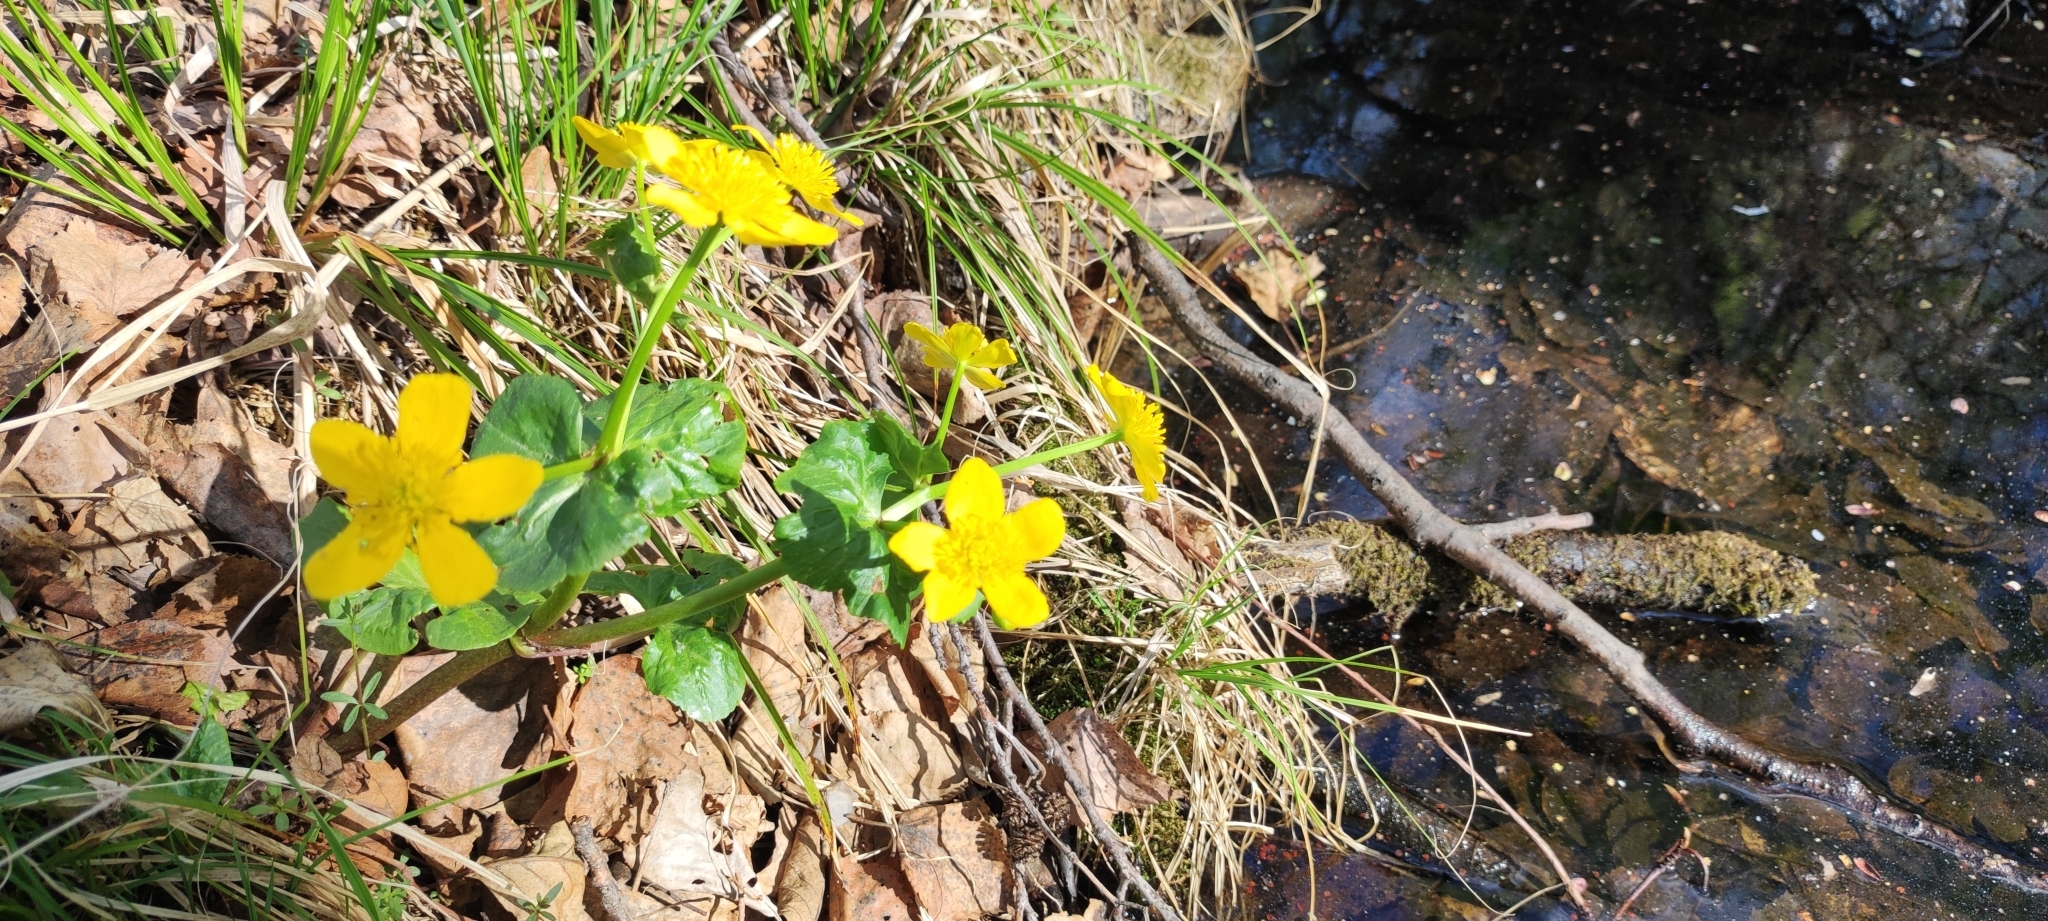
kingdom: Plantae
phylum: Tracheophyta
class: Magnoliopsida
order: Ranunculales
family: Ranunculaceae
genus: Caltha
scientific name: Caltha palustris
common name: Marsh marigold
